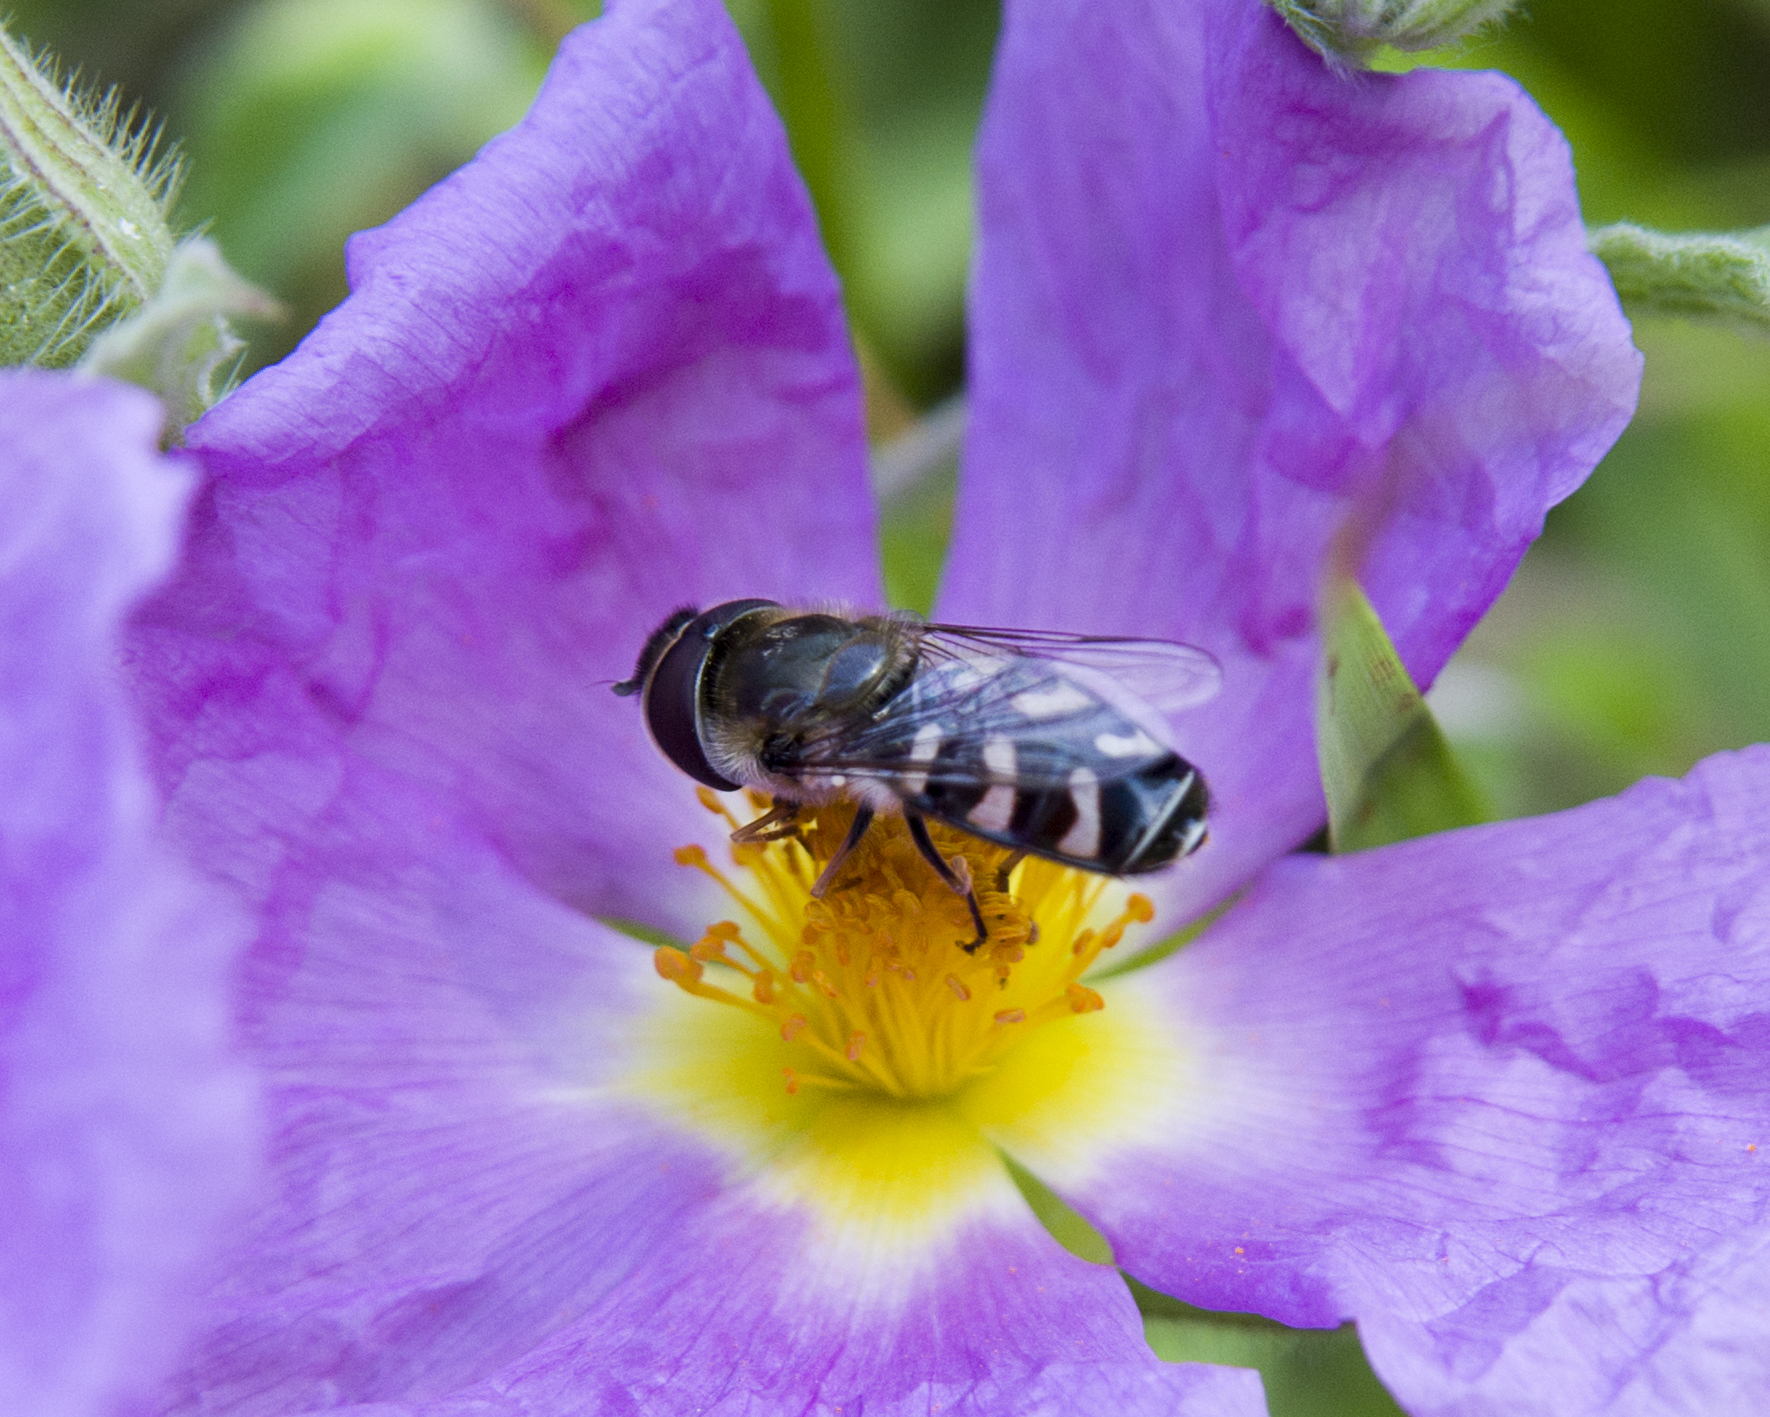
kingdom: Animalia
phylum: Arthropoda
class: Insecta
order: Diptera
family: Syrphidae
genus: Scaeva
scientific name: Scaeva pyrastri
